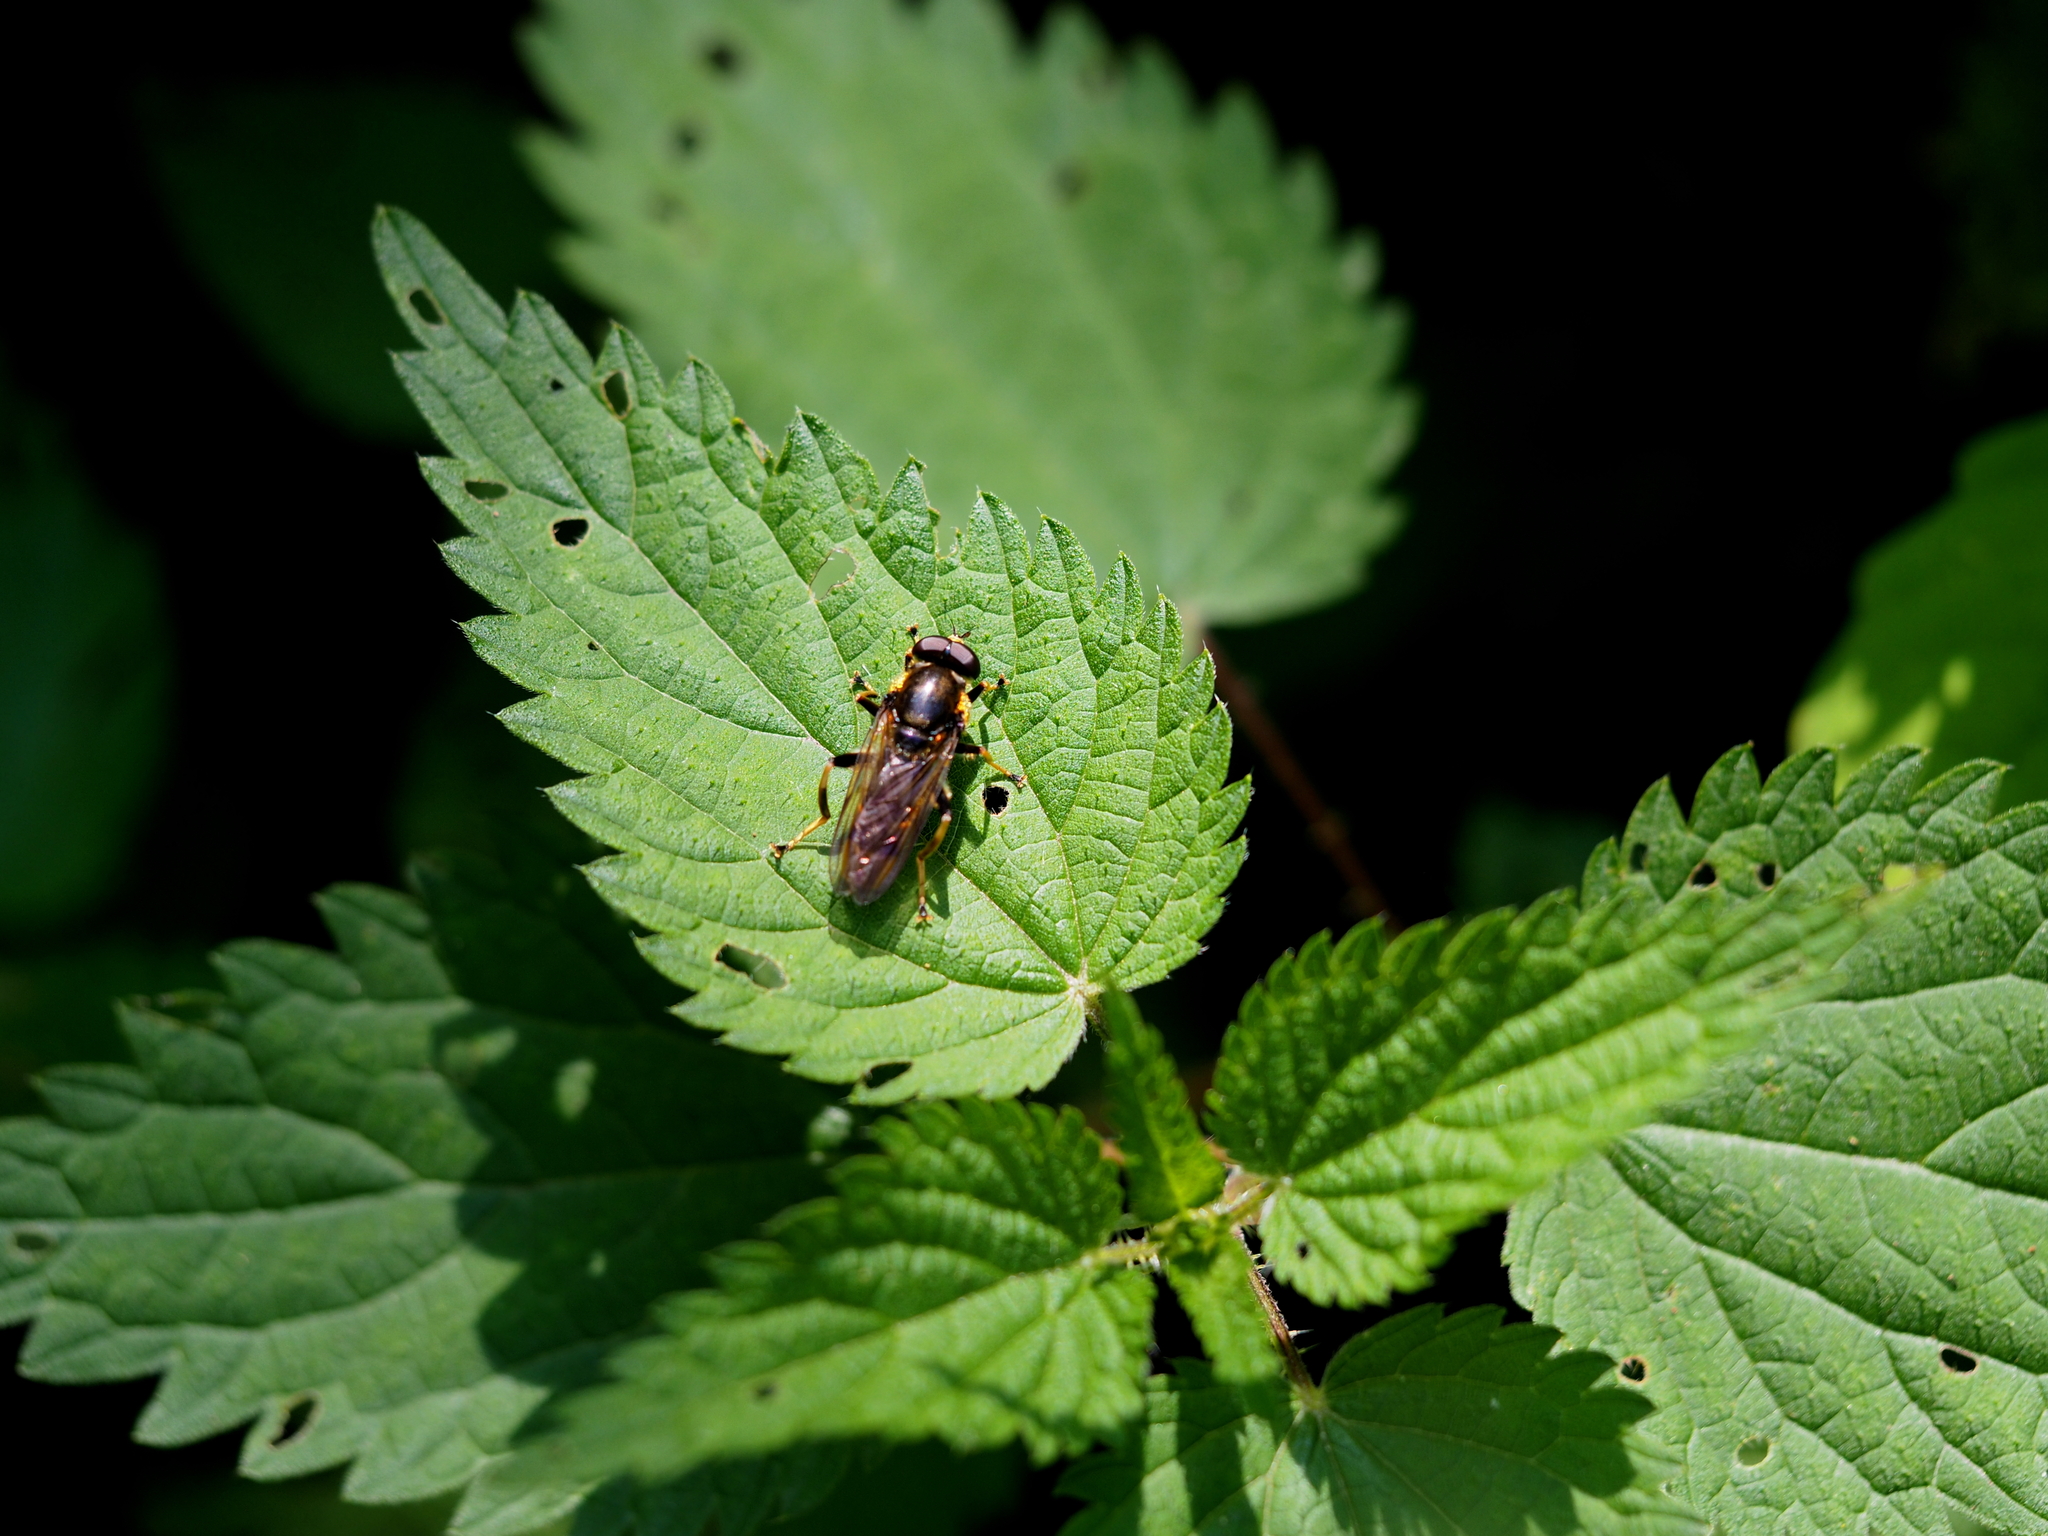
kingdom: Animalia
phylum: Arthropoda
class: Insecta
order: Diptera
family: Syrphidae
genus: Xylota
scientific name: Xylota sylvarum
